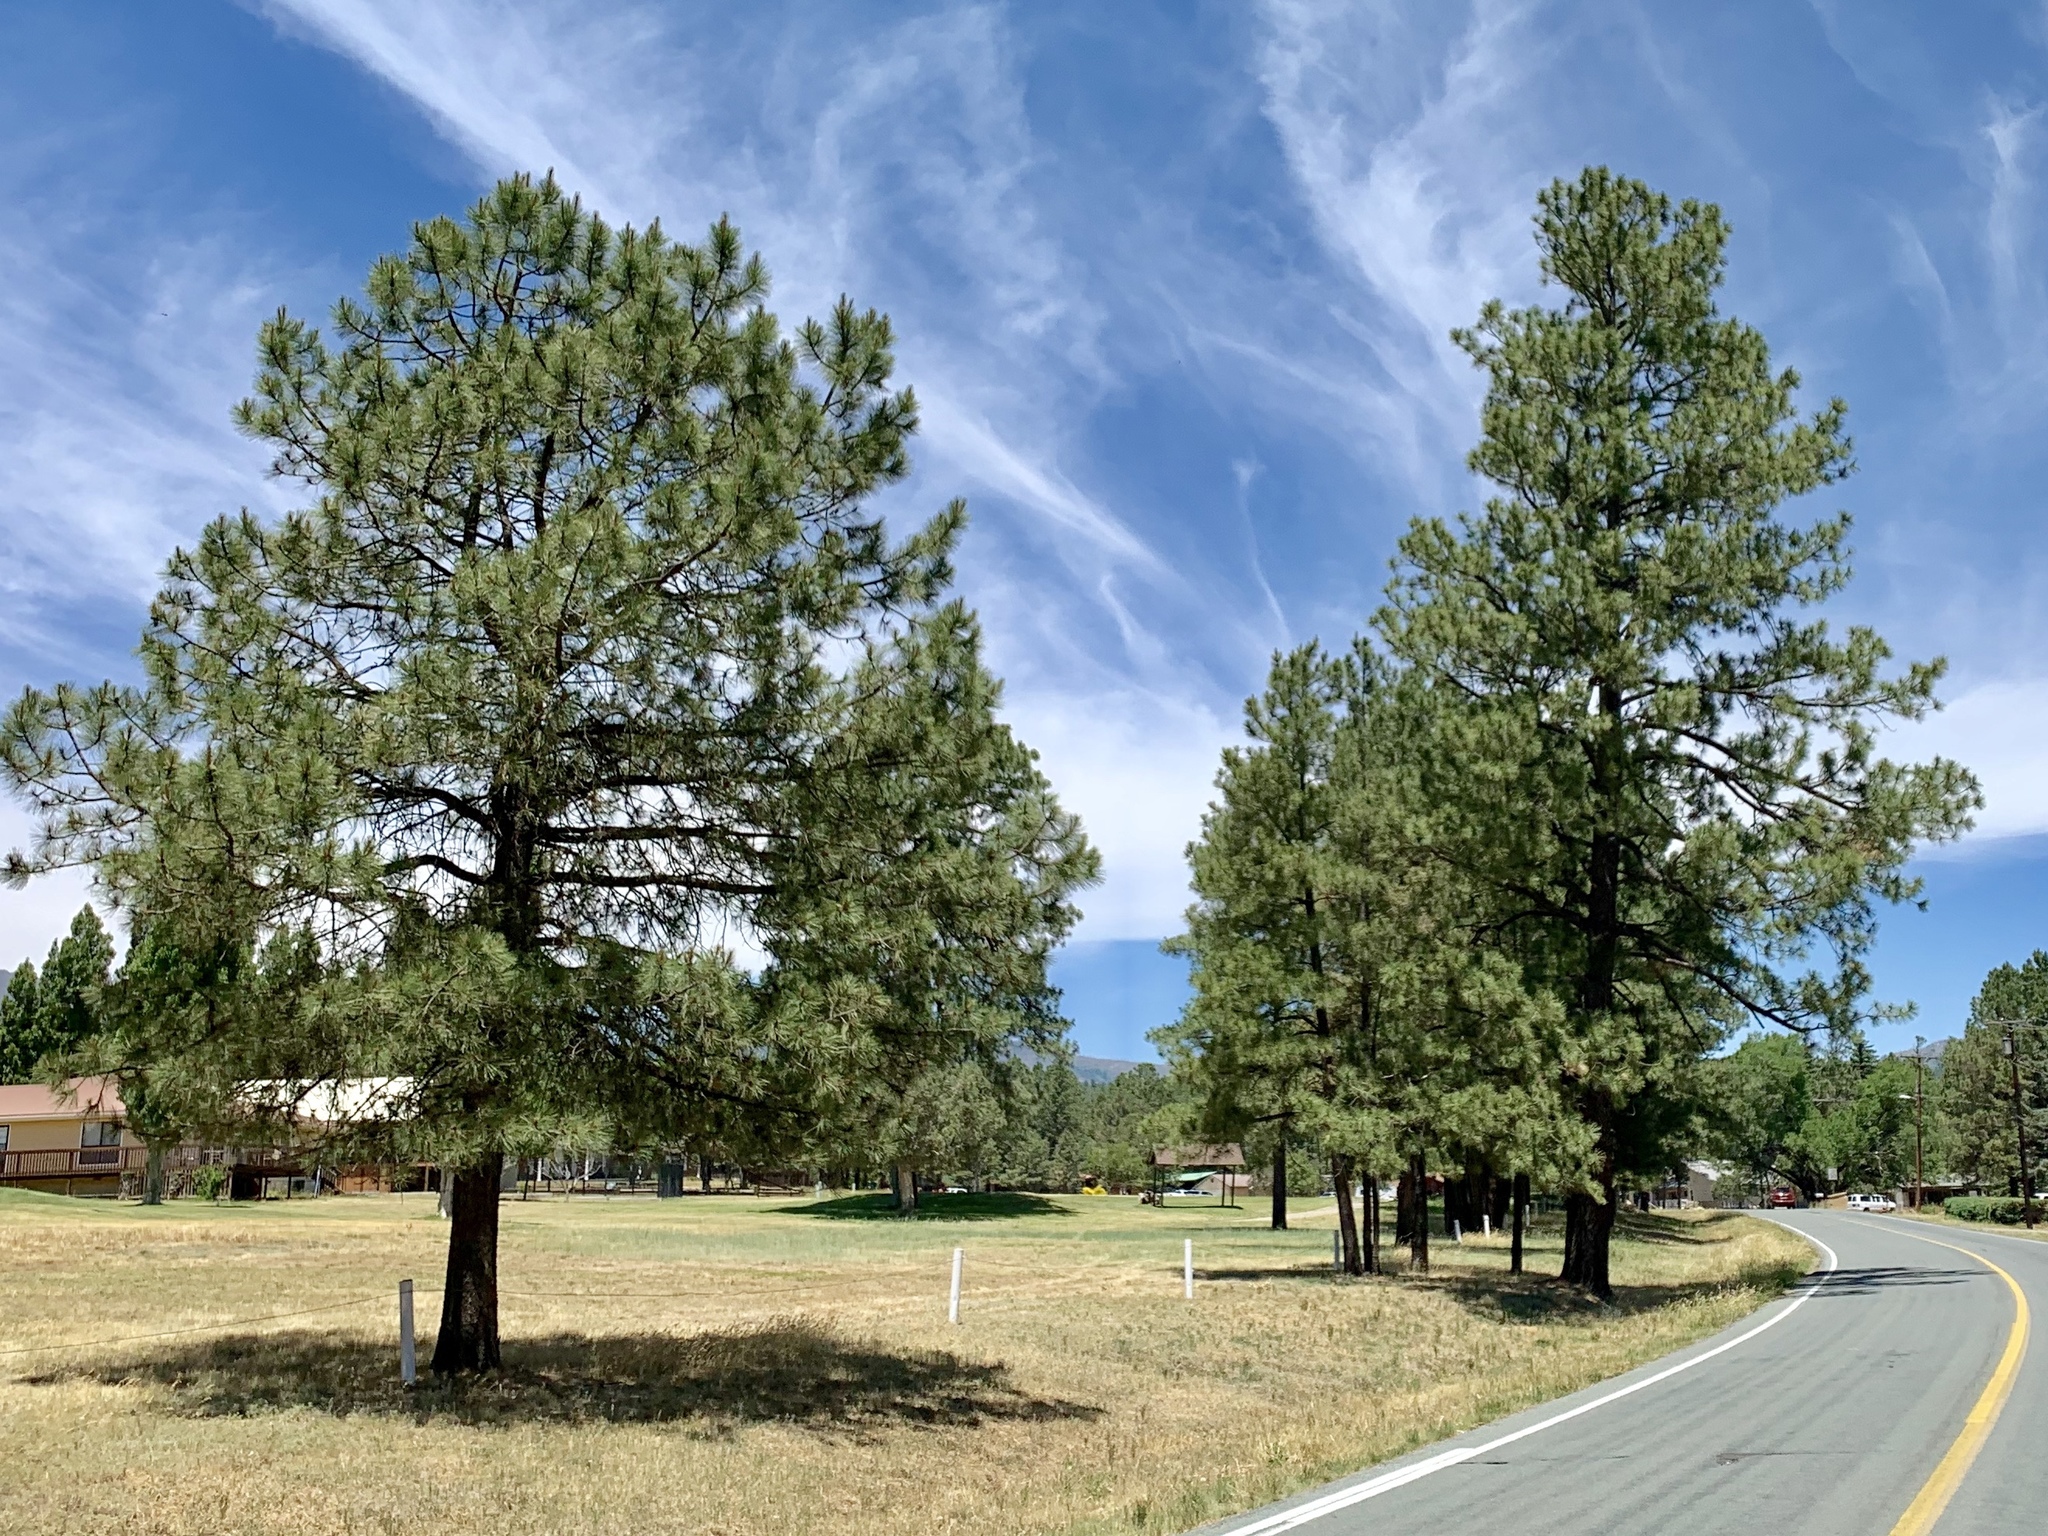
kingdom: Plantae
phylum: Tracheophyta
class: Pinopsida
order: Pinales
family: Pinaceae
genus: Pinus
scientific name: Pinus ponderosa
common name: Western yellow-pine
